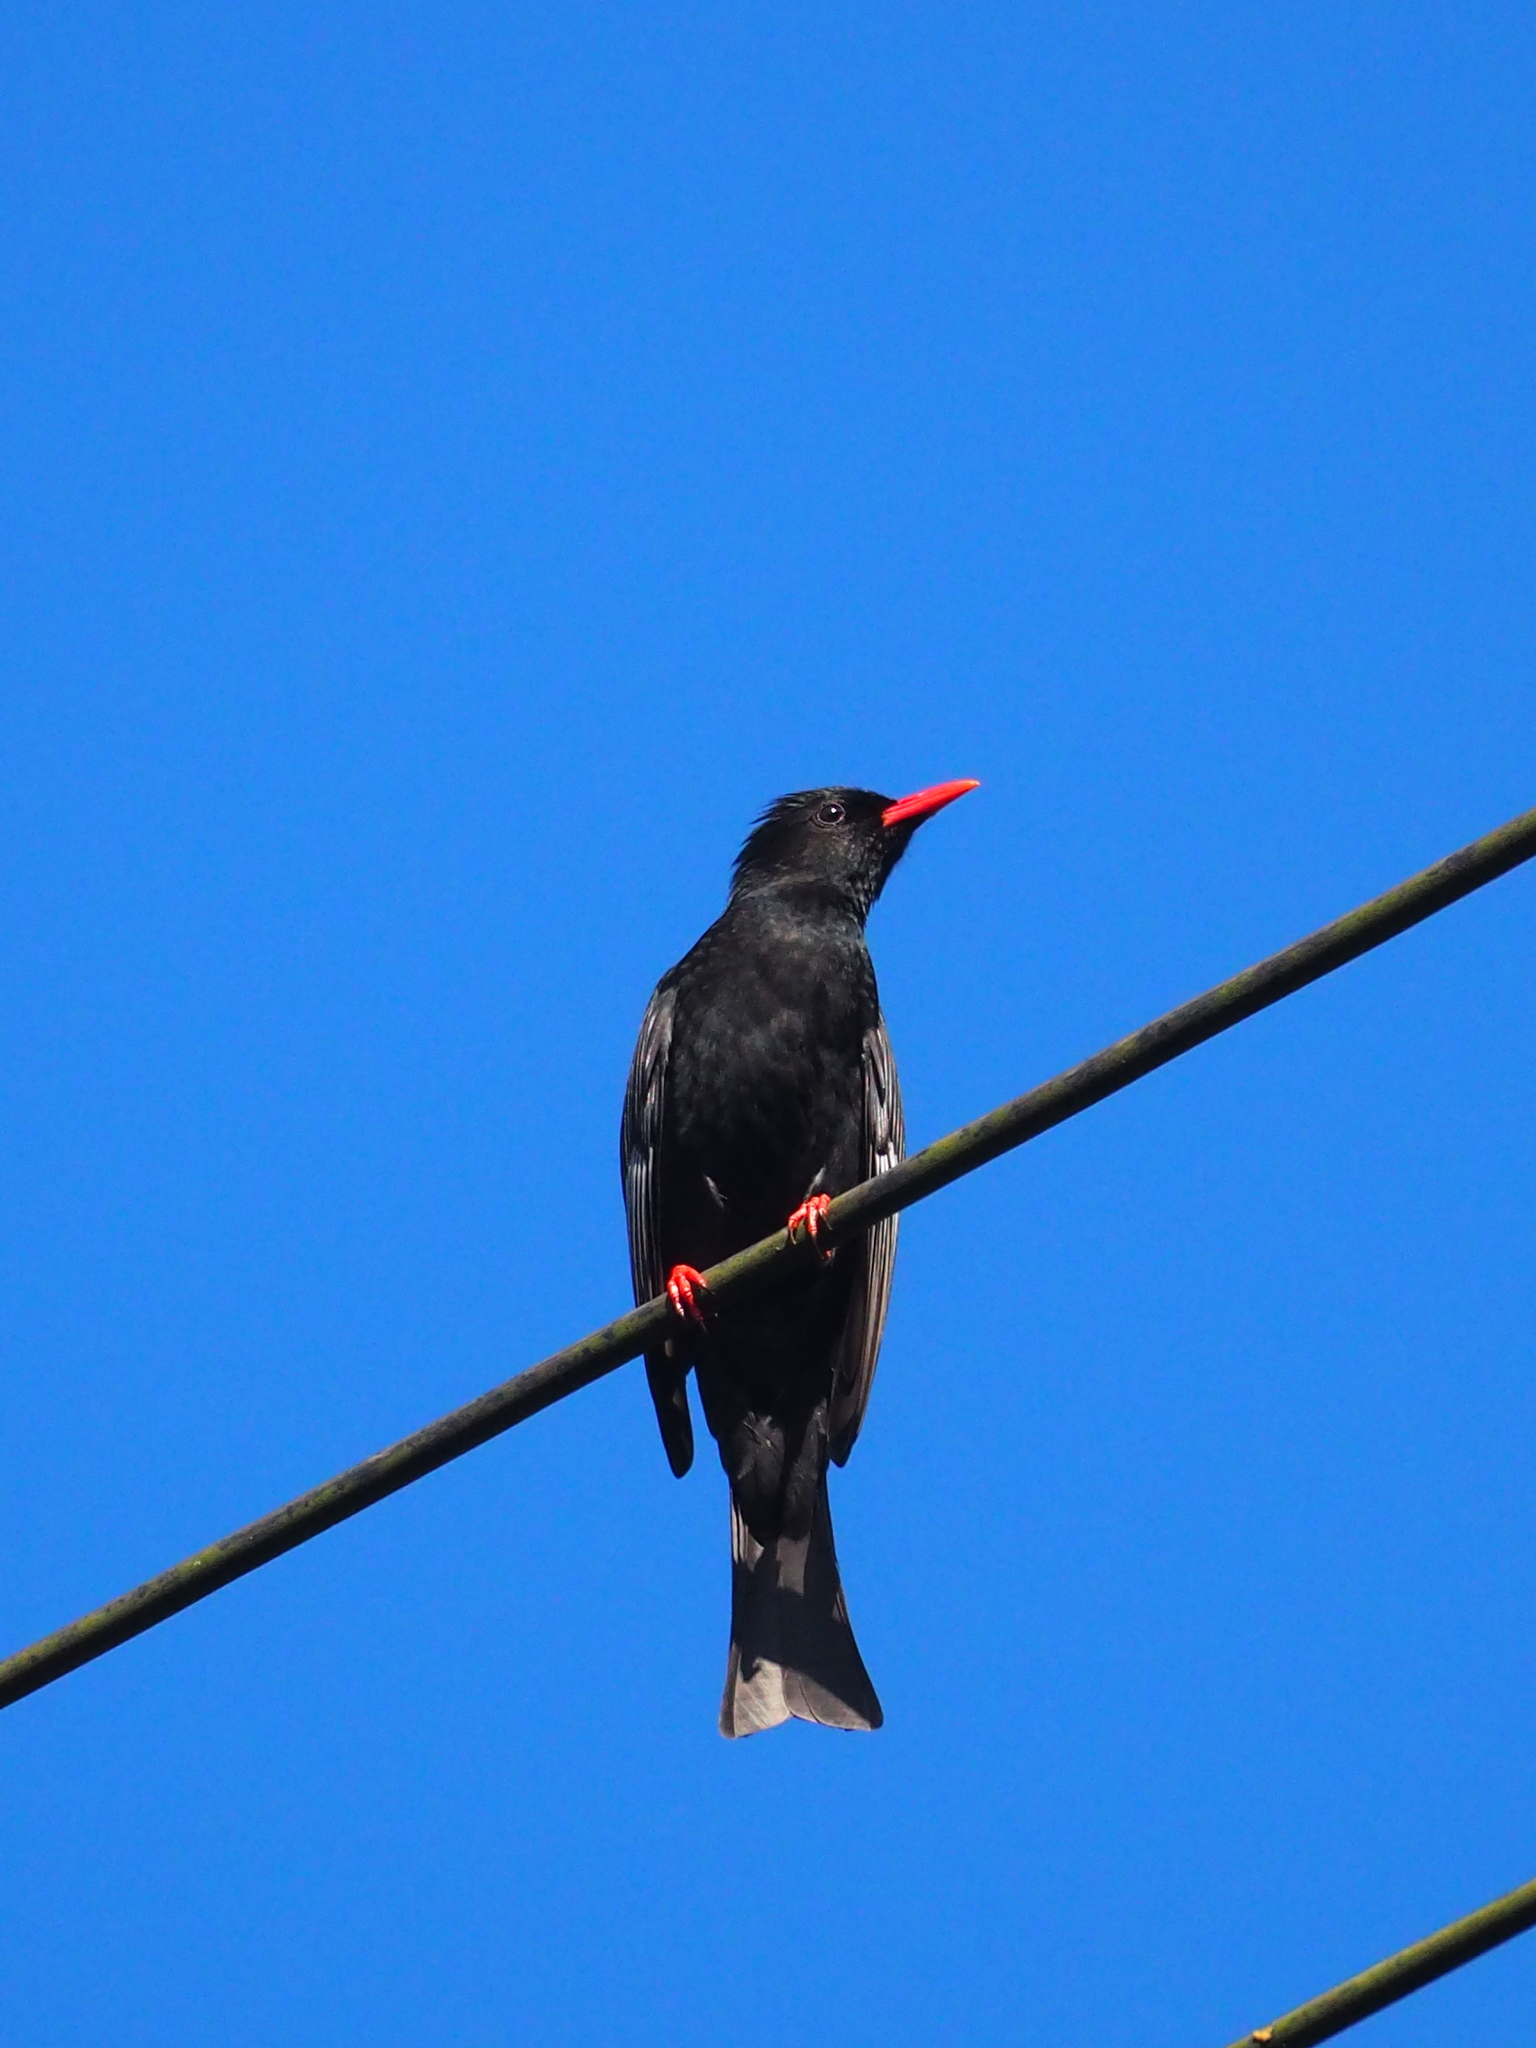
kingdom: Animalia
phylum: Chordata
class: Aves
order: Passeriformes
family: Pycnonotidae
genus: Hypsipetes
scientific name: Hypsipetes leucocephalus
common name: Black bulbul
